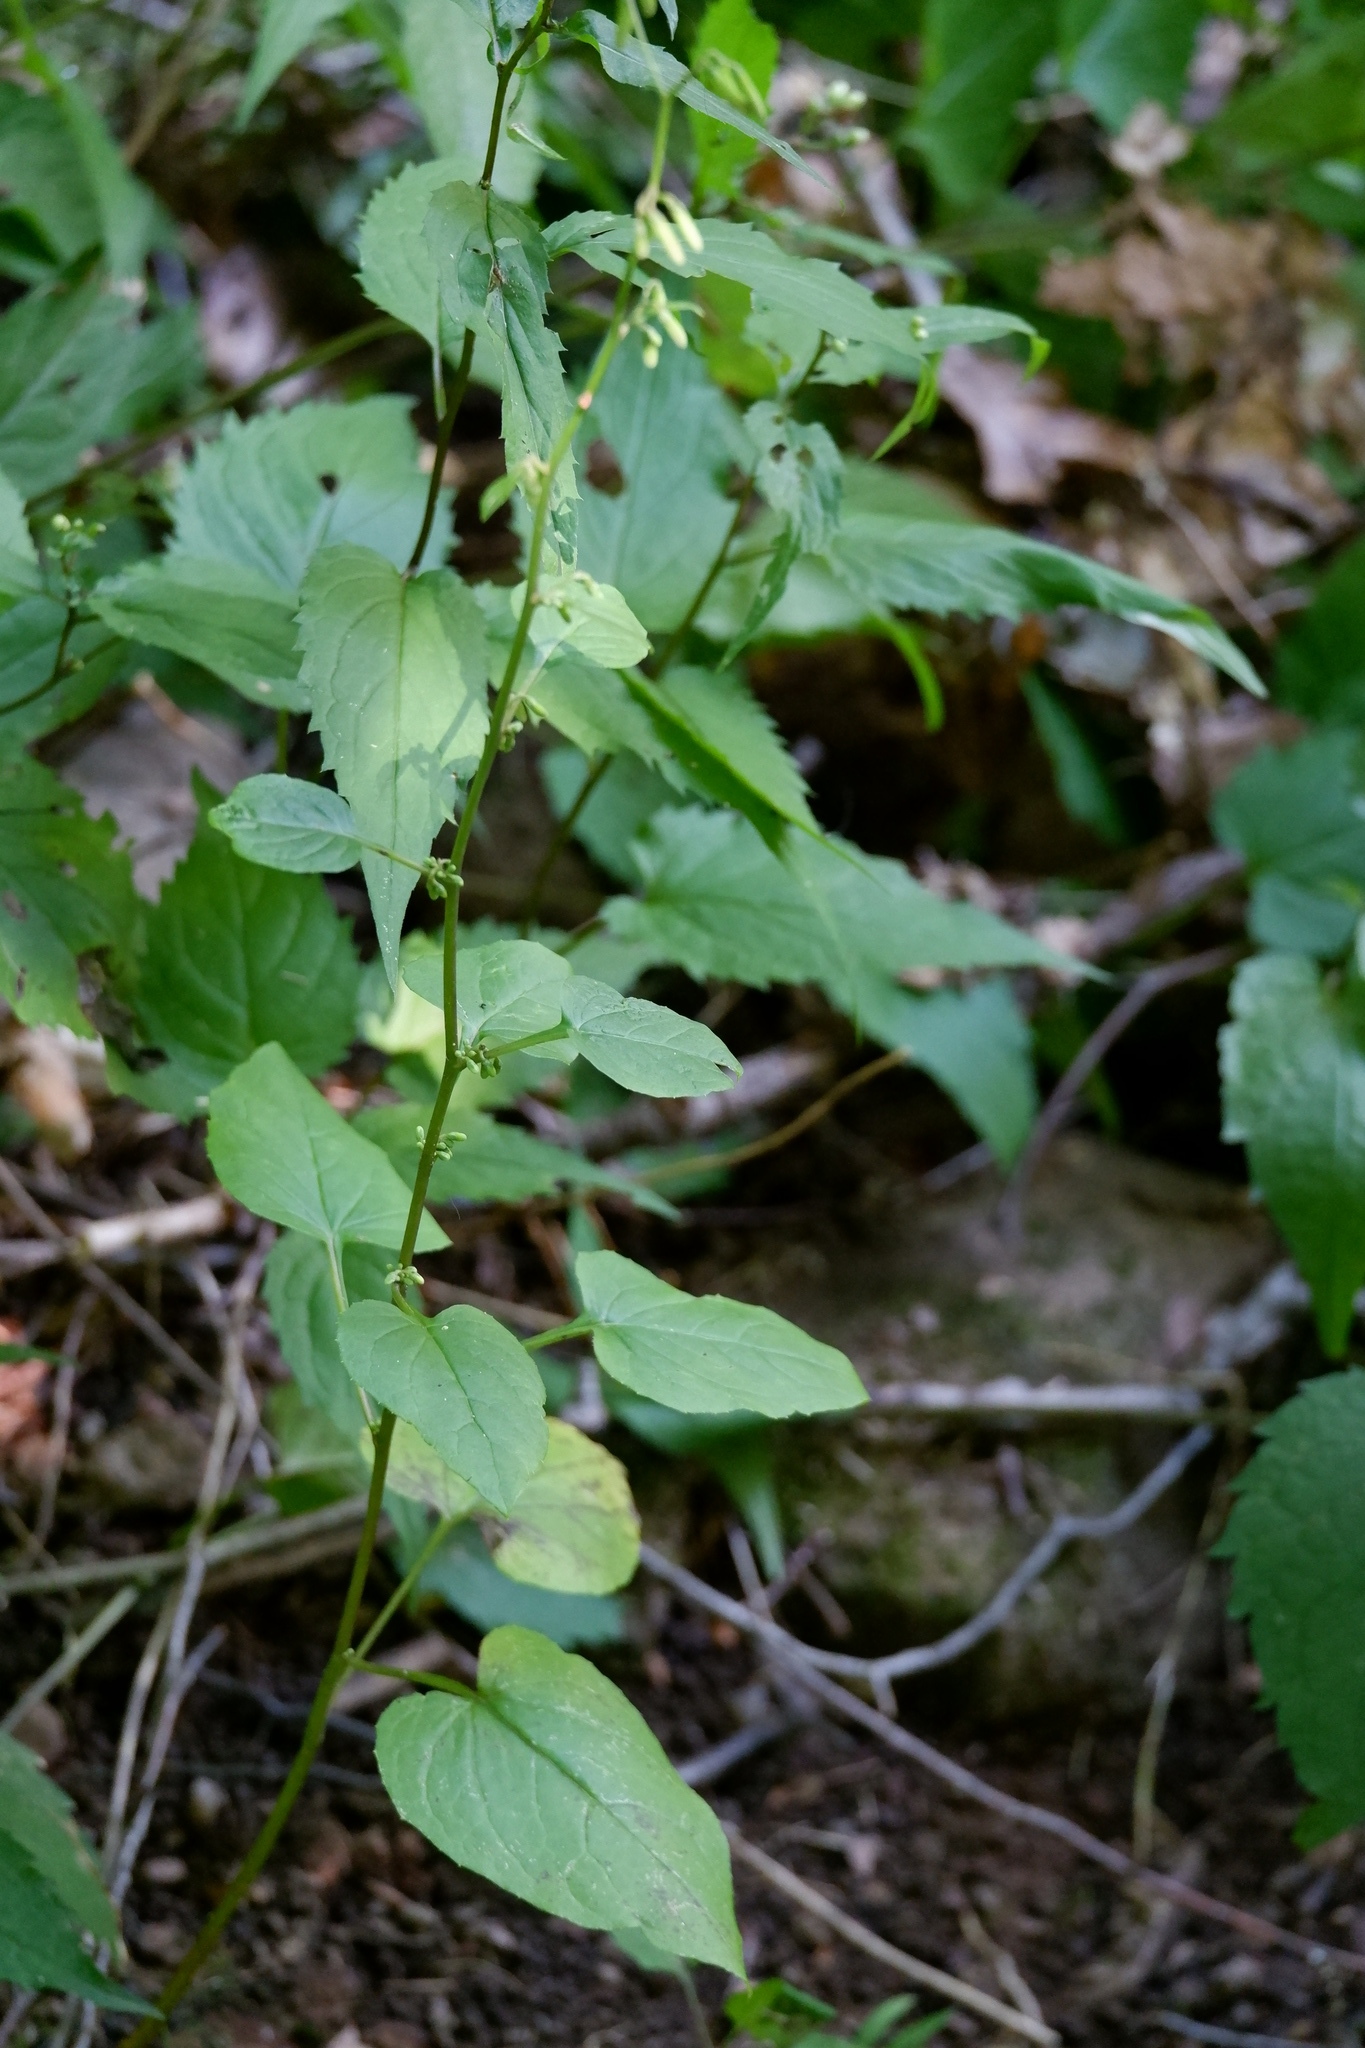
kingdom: Plantae
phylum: Tracheophyta
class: Magnoliopsida
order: Asterales
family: Asteraceae
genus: Nabalus
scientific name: Nabalus altissima
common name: Tall rattlesnakeroot
